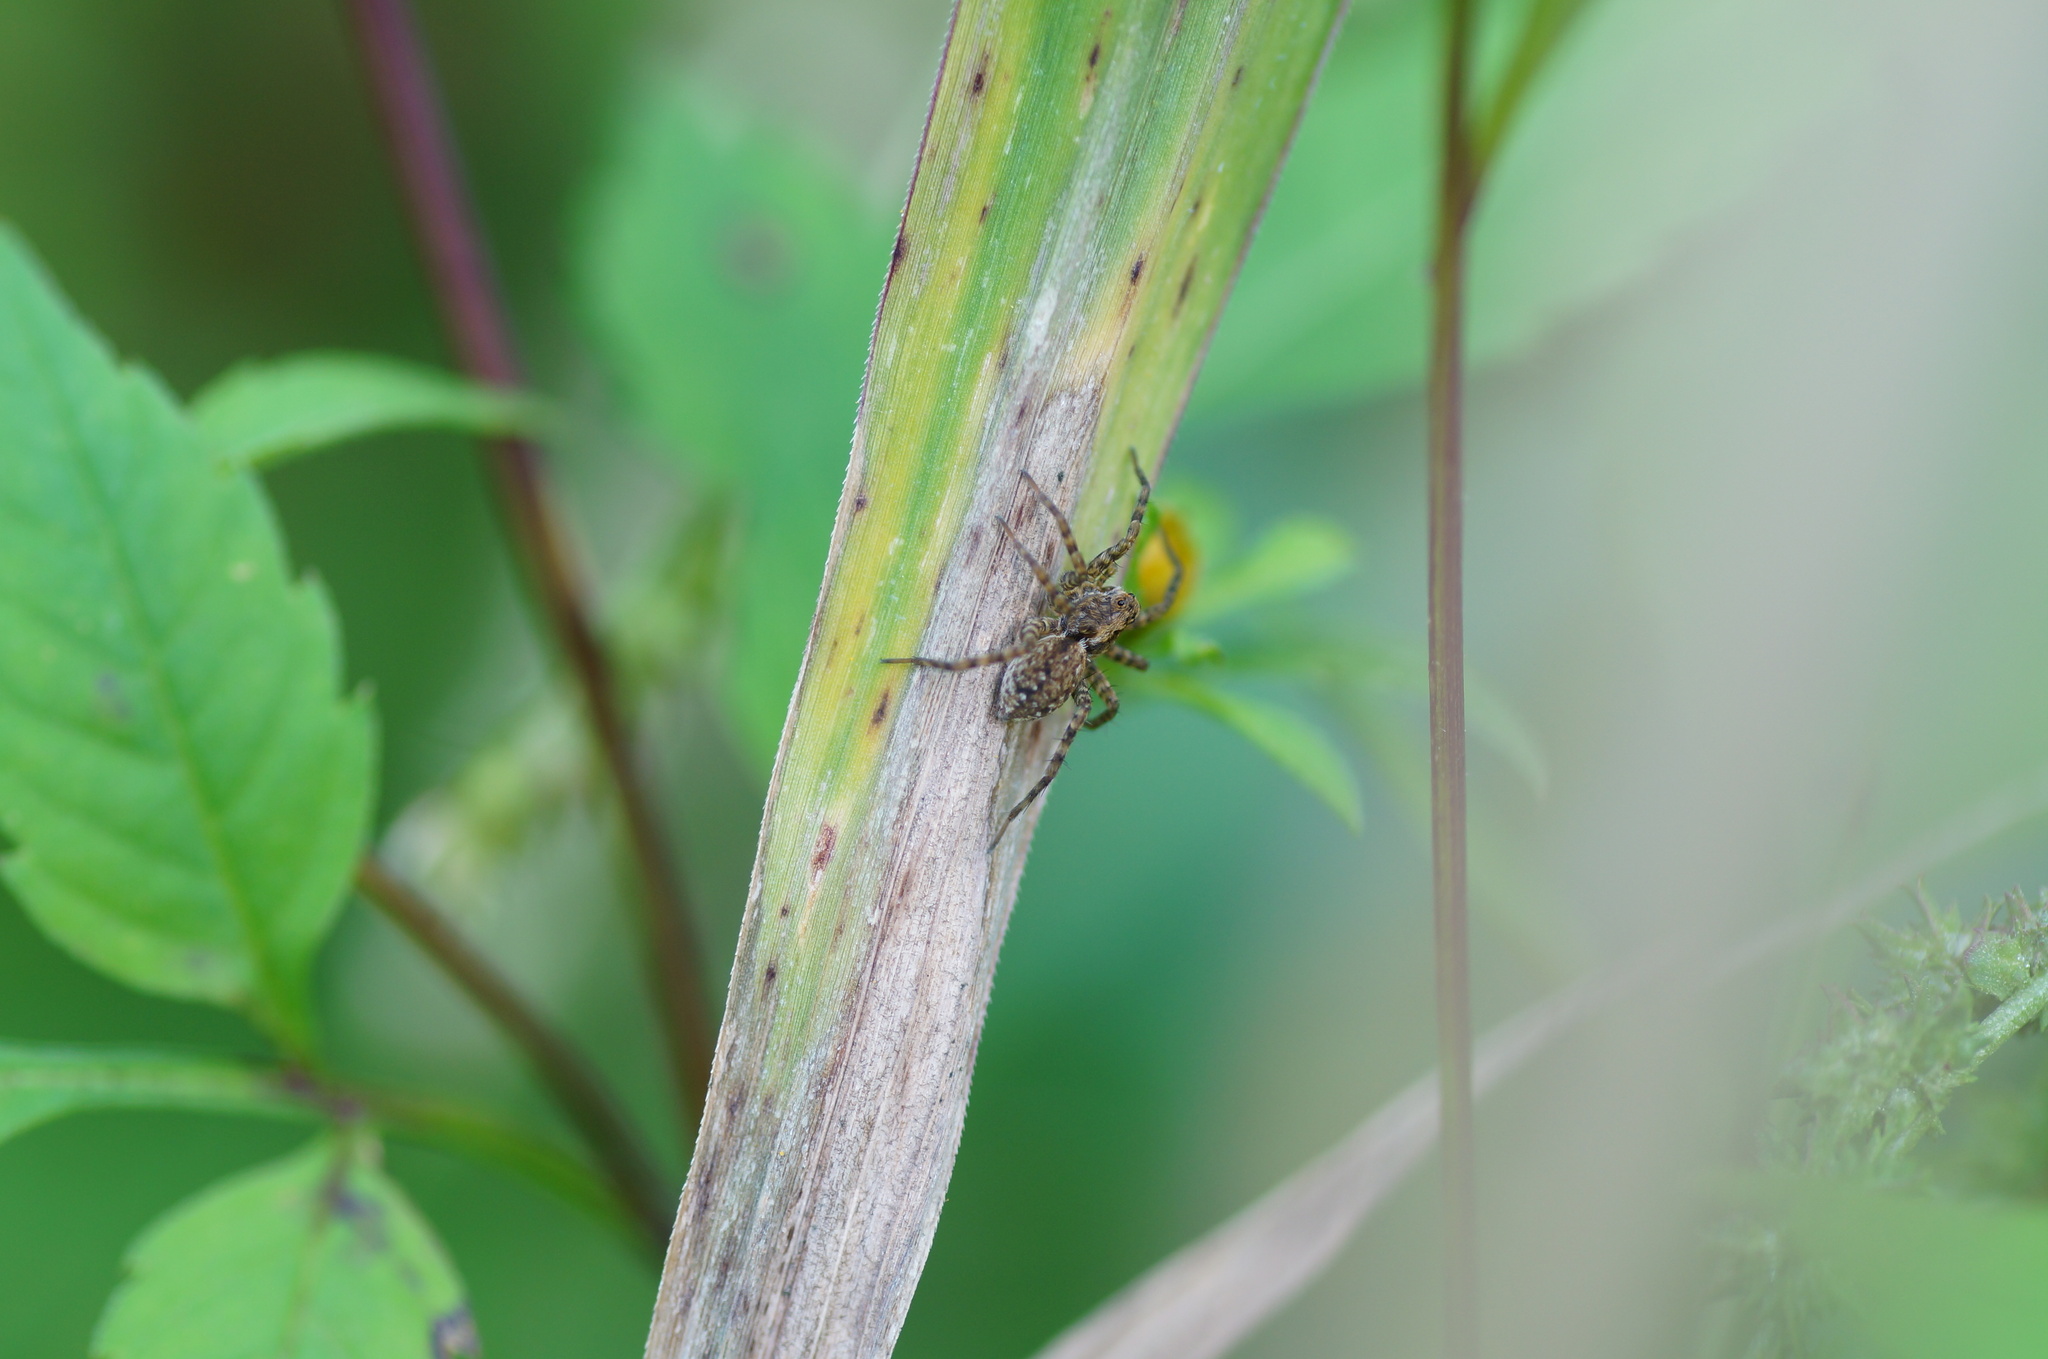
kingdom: Animalia
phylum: Arthropoda
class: Arachnida
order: Araneae
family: Lycosidae
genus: Pardosa
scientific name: Pardosa
